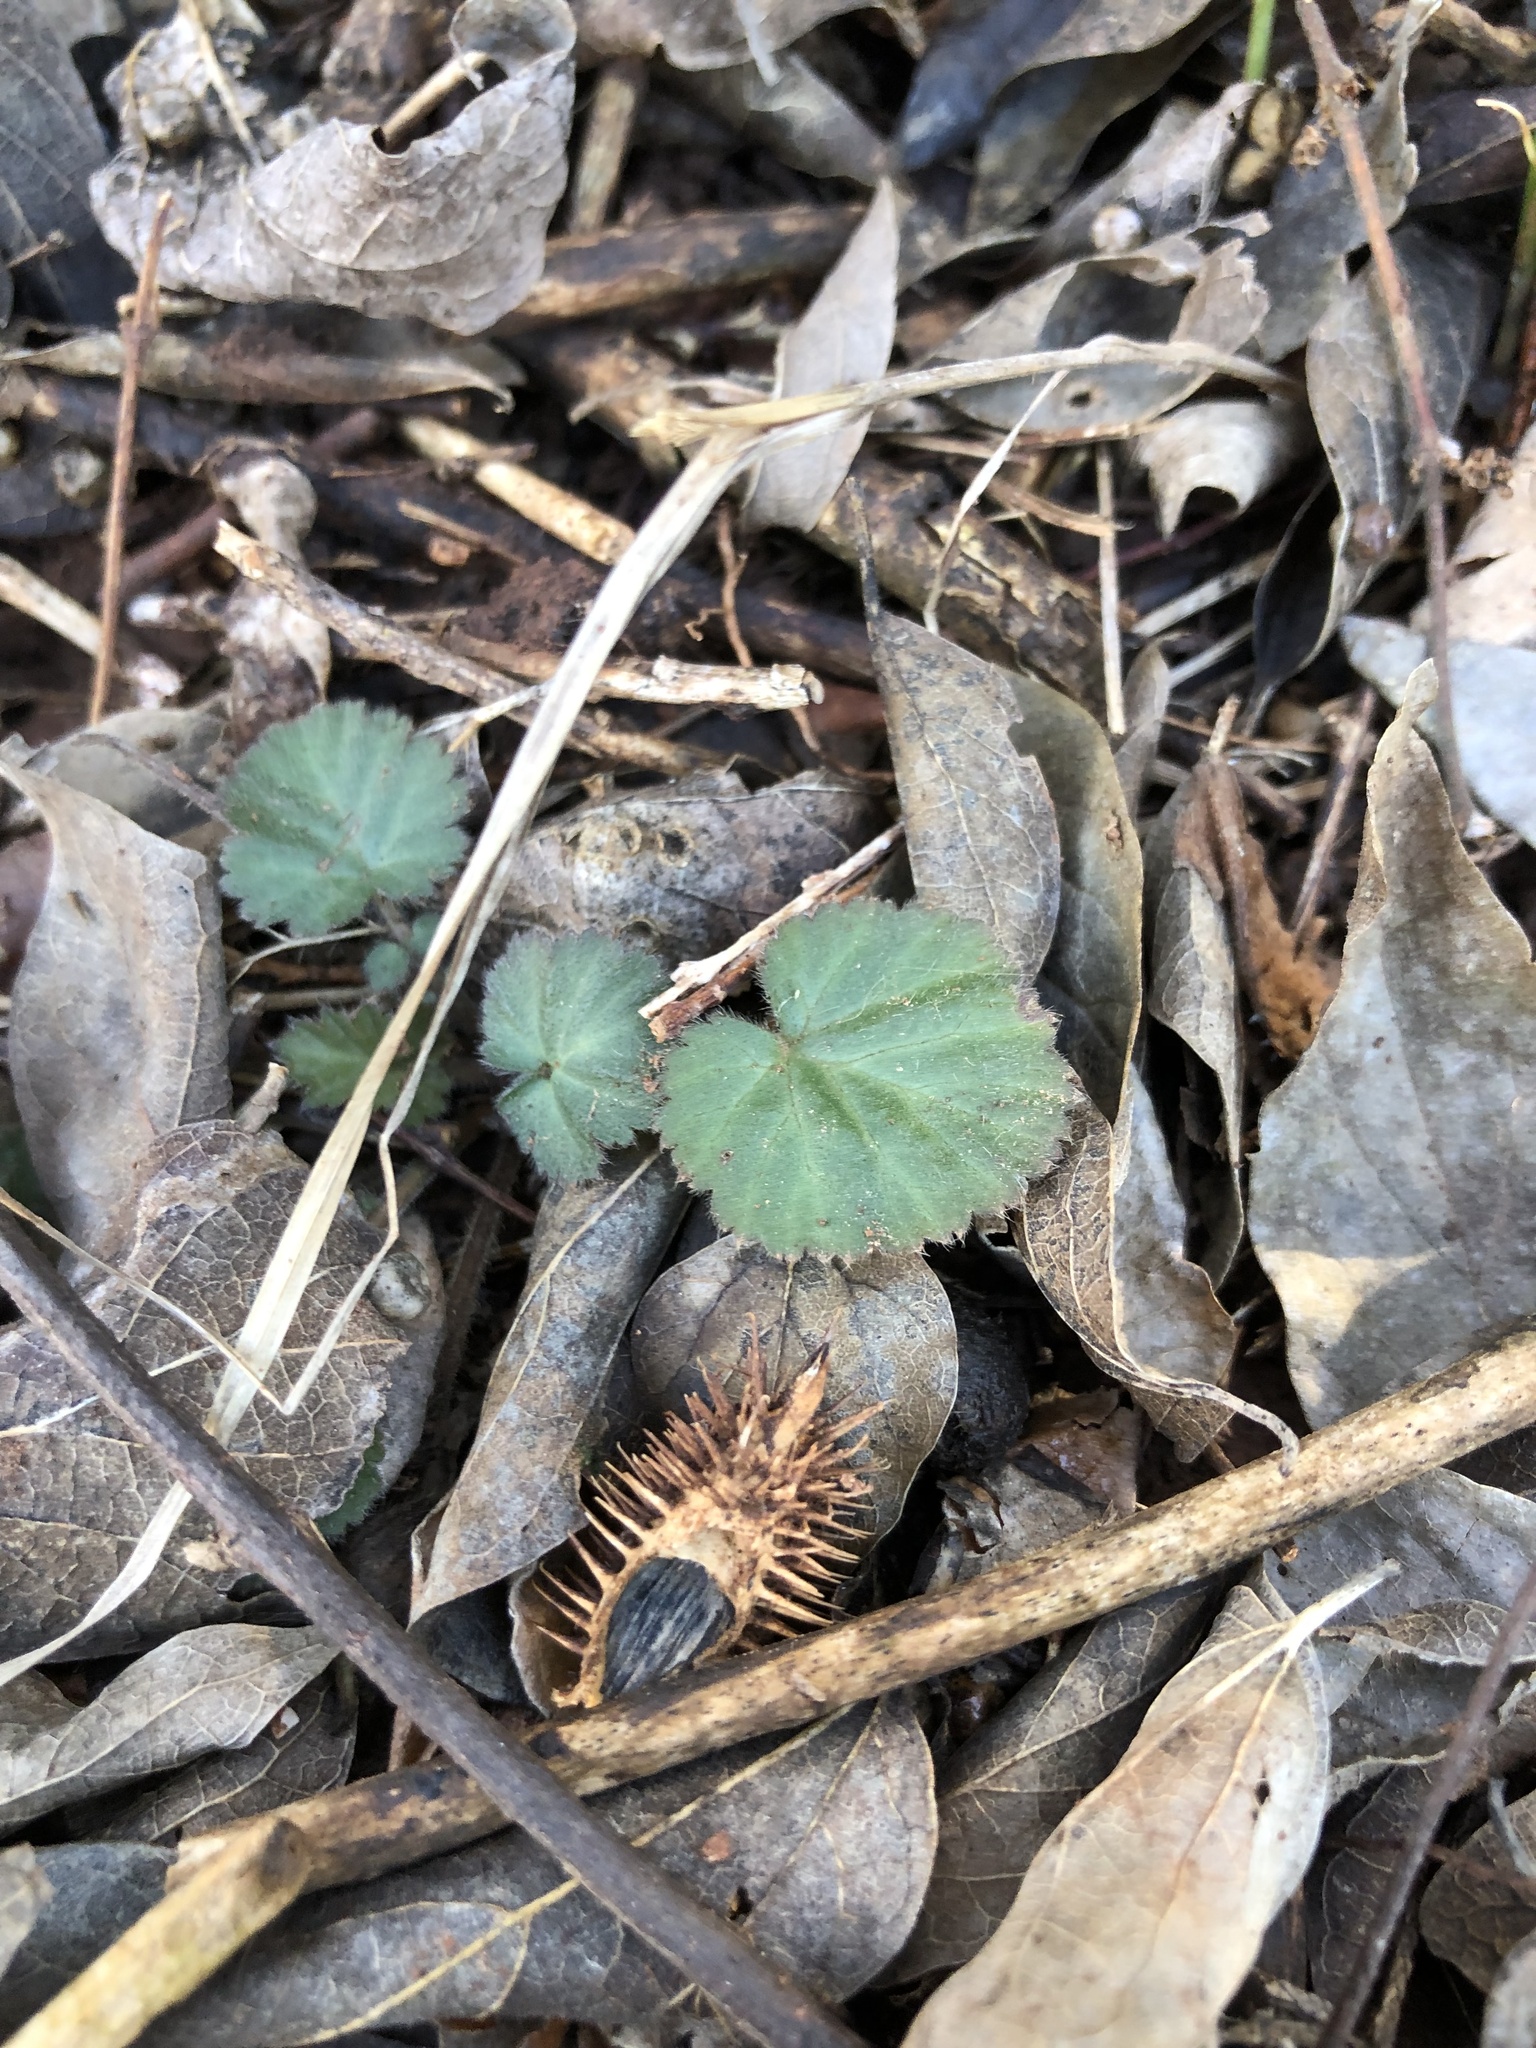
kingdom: Plantae
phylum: Tracheophyta
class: Magnoliopsida
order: Rosales
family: Rosaceae
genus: Geum
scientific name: Geum canadense
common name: White avens
